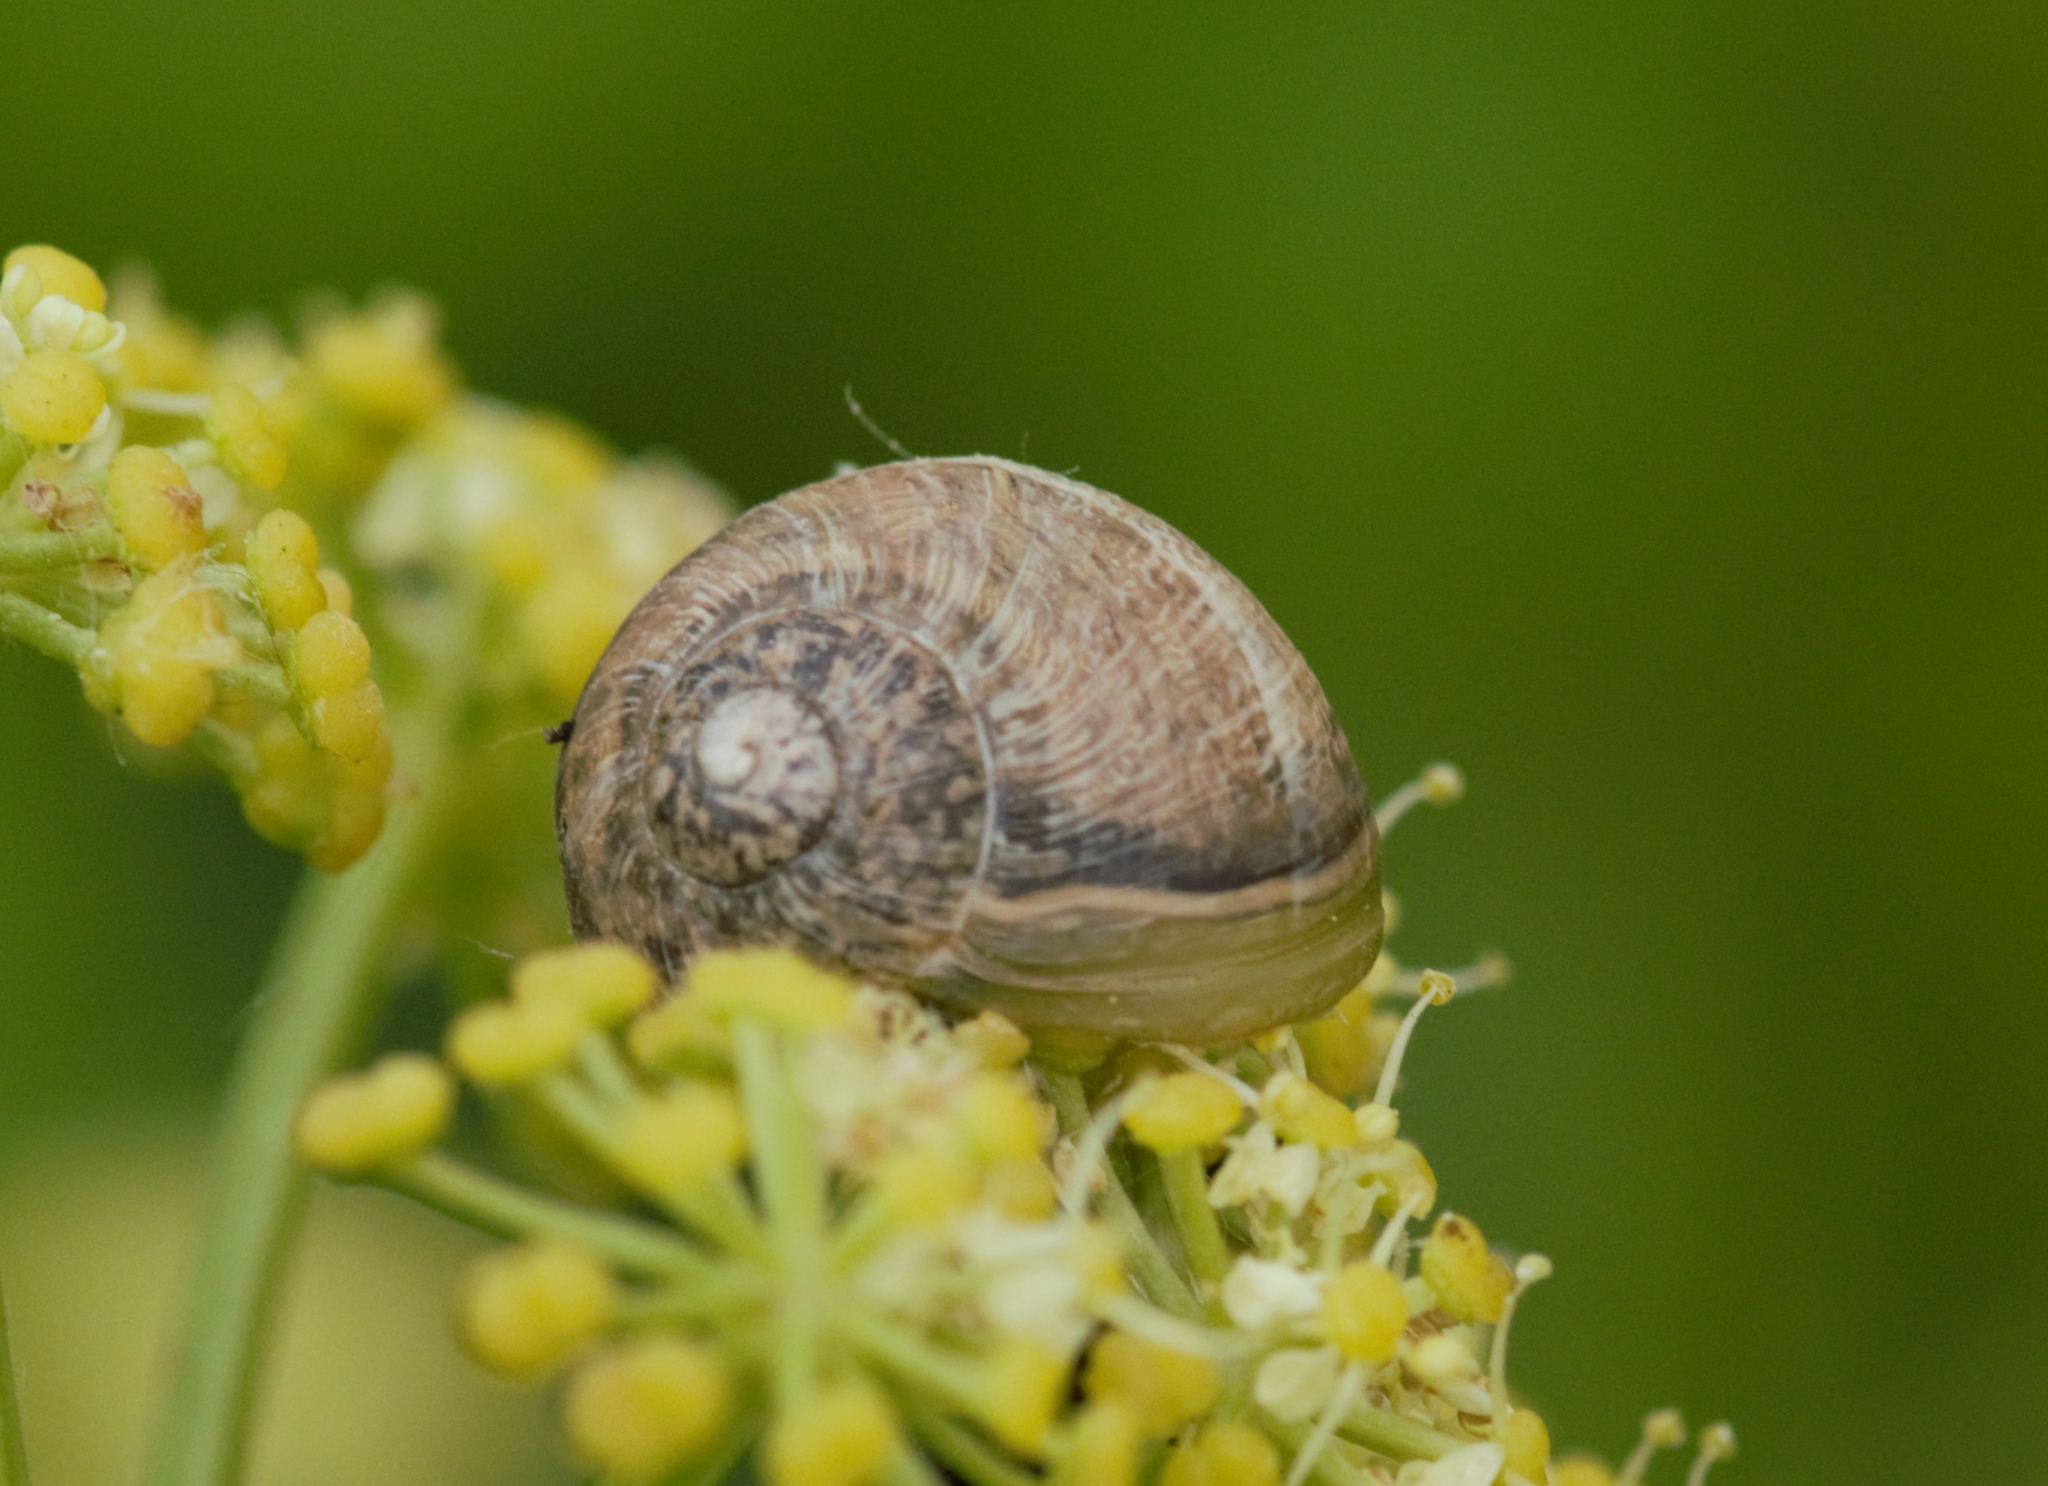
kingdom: Animalia
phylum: Mollusca
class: Gastropoda
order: Stylommatophora
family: Helicidae
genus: Cornu
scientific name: Cornu aspersum
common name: Brown garden snail
